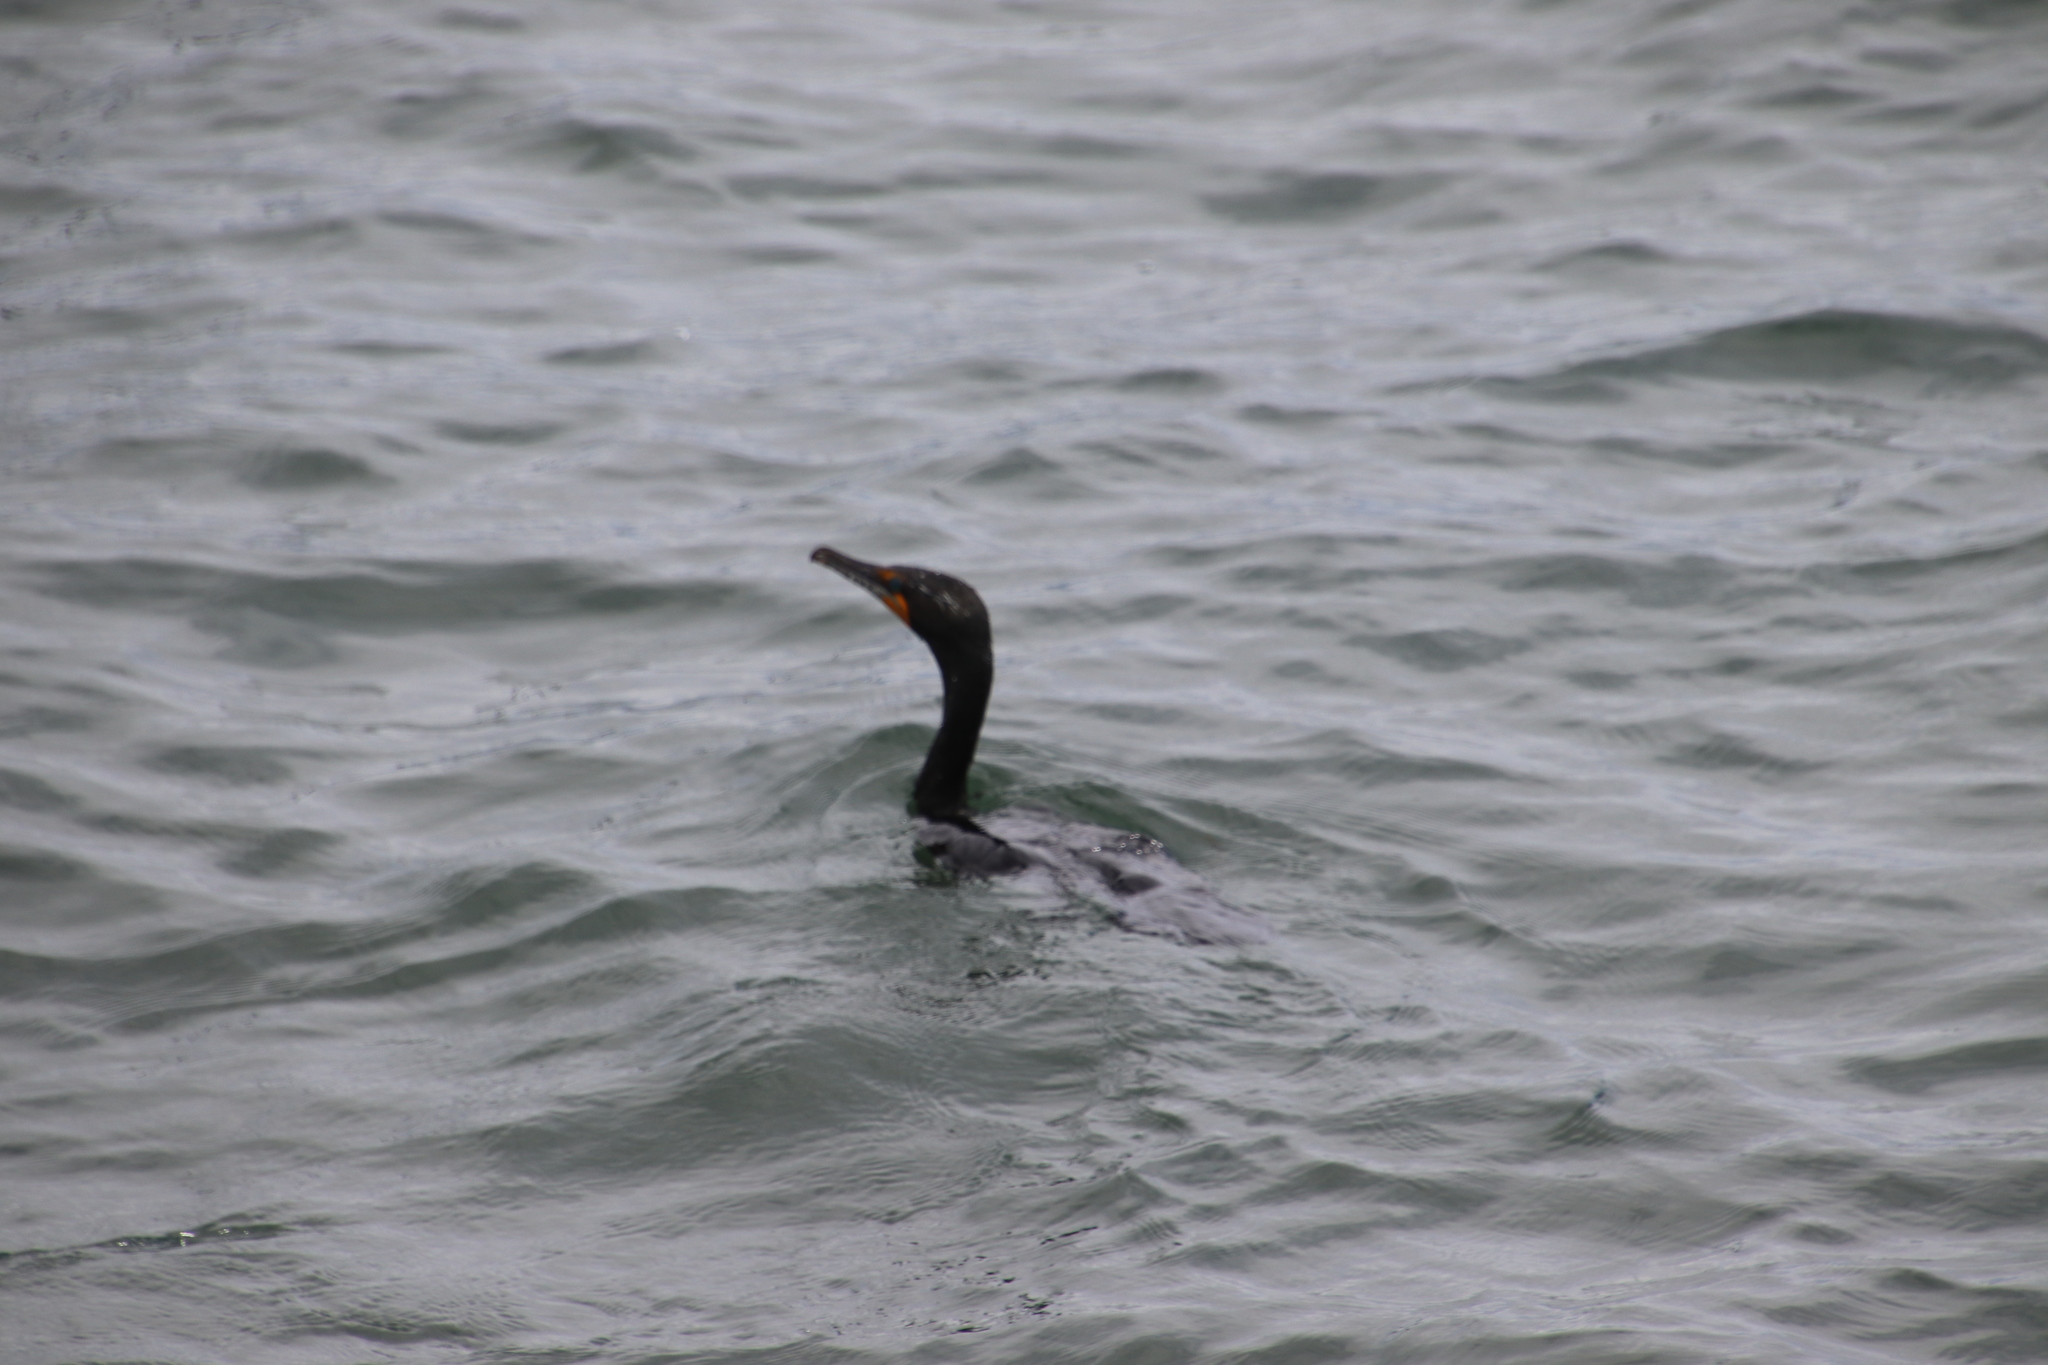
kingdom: Animalia
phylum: Chordata
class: Aves
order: Suliformes
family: Phalacrocoracidae
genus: Phalacrocorax
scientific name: Phalacrocorax auritus
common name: Double-crested cormorant
